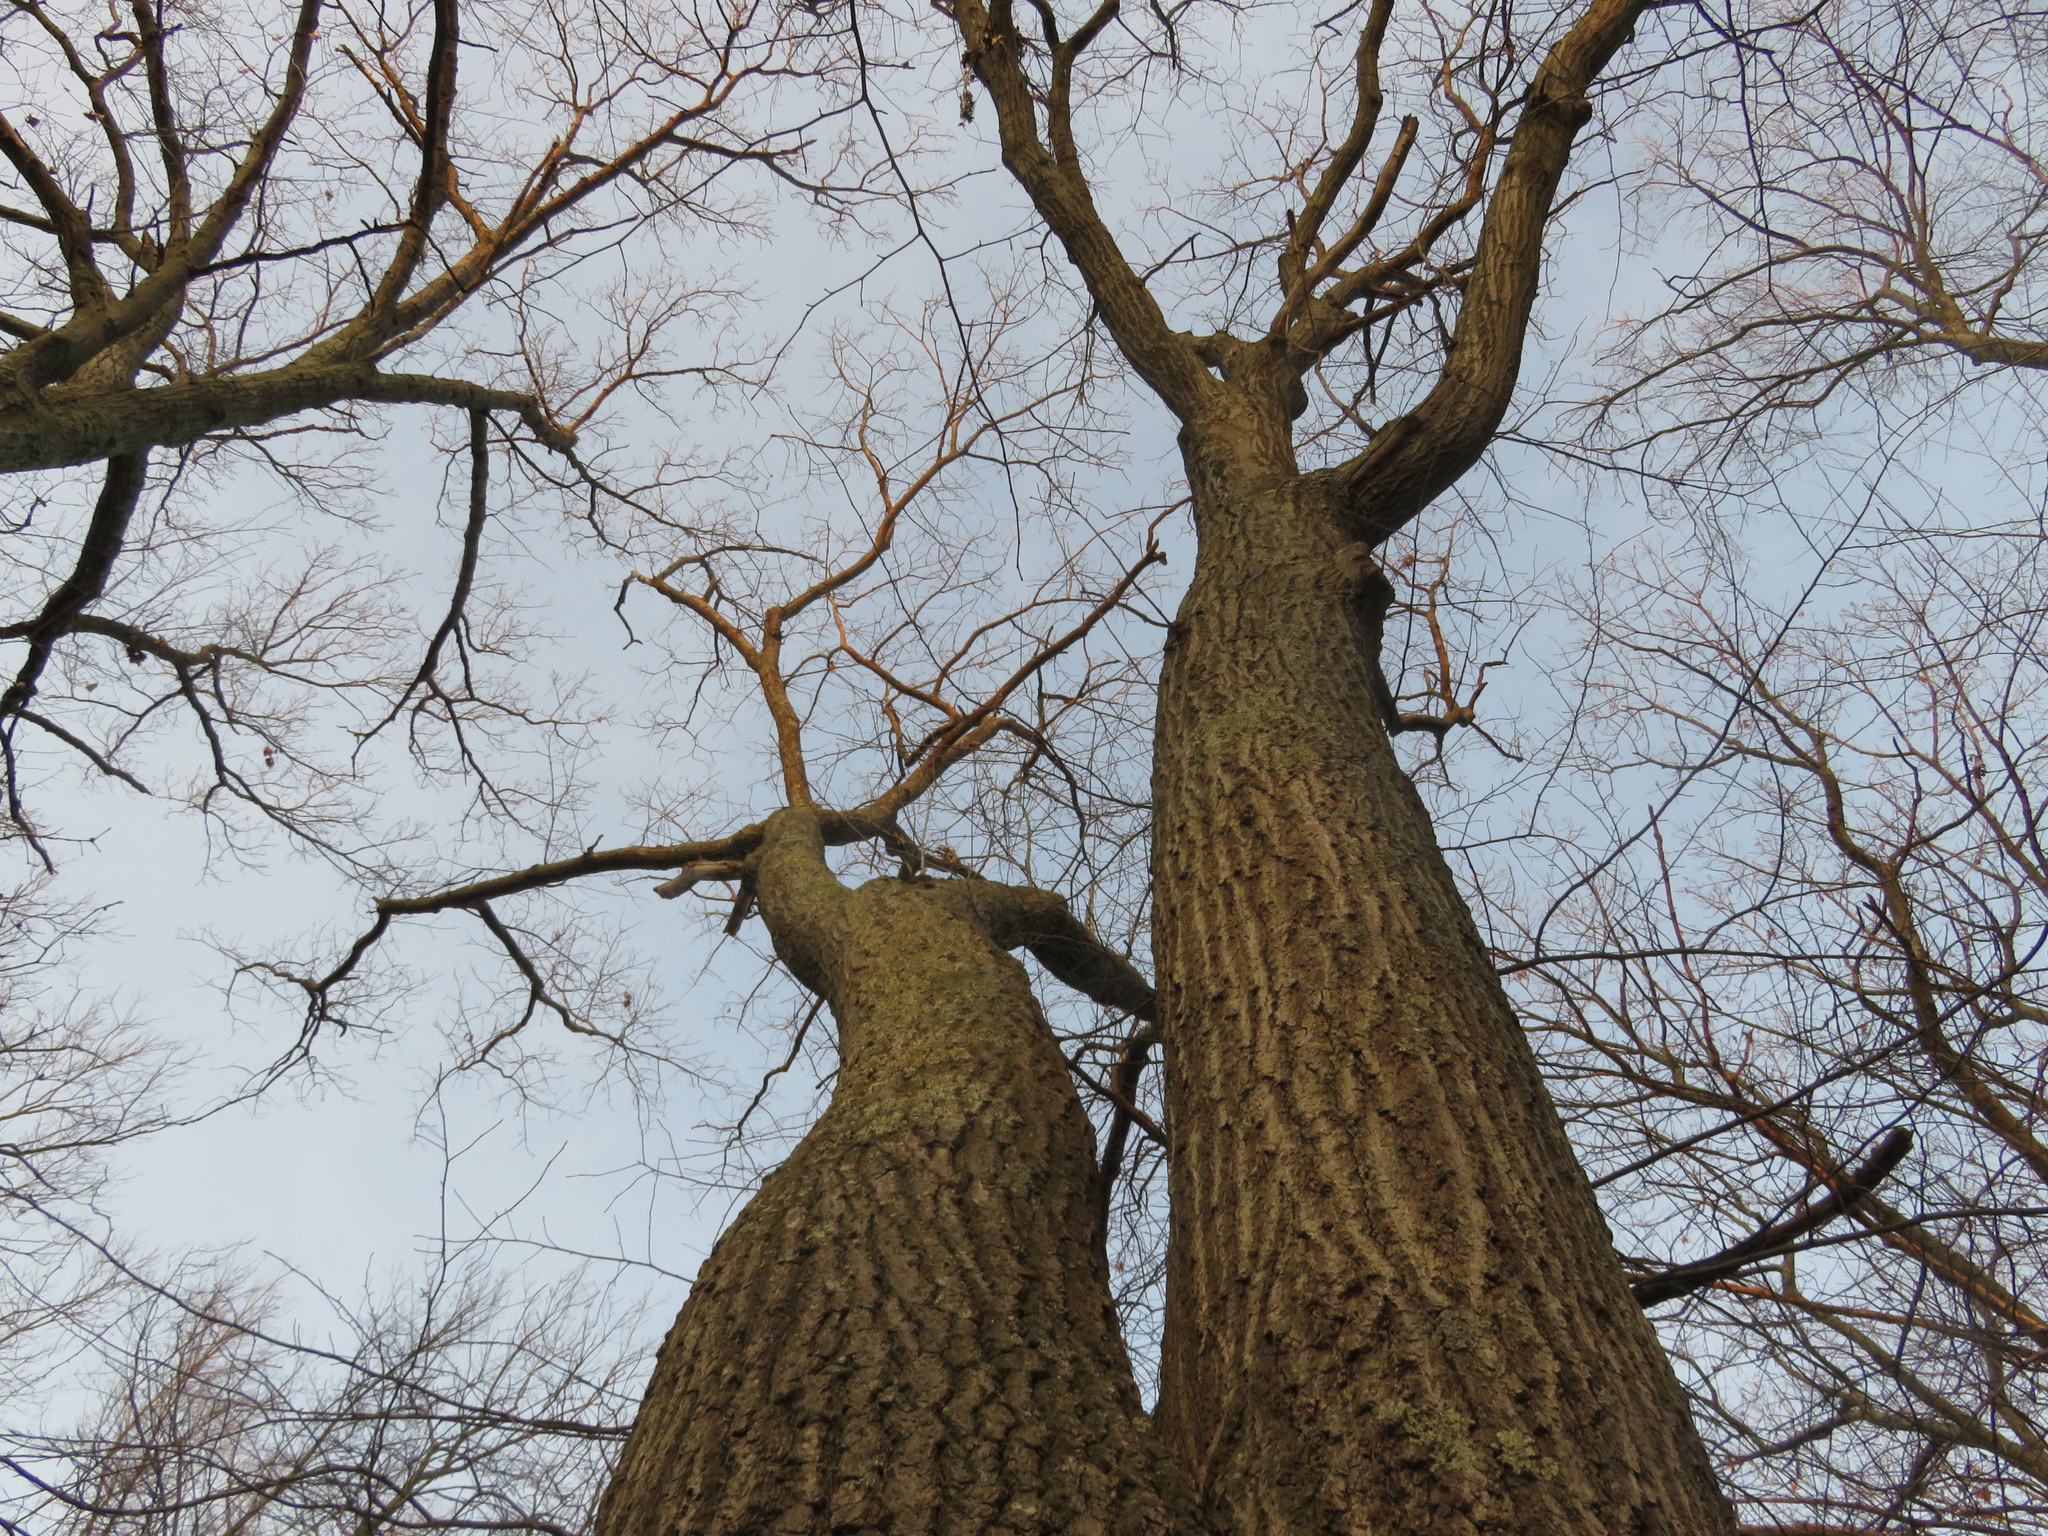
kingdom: Plantae
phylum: Tracheophyta
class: Magnoliopsida
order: Fagales
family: Fagaceae
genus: Quercus
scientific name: Quercus rubra
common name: Red oak
